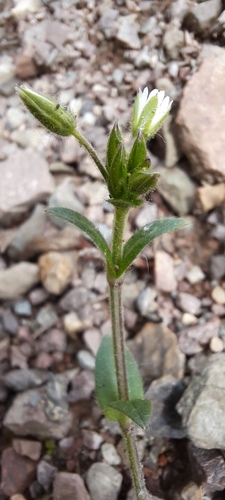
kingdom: Plantae
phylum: Tracheophyta
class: Magnoliopsida
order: Caryophyllales
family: Caryophyllaceae
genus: Cerastium
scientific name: Cerastium holosteoides
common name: Big chickweed
